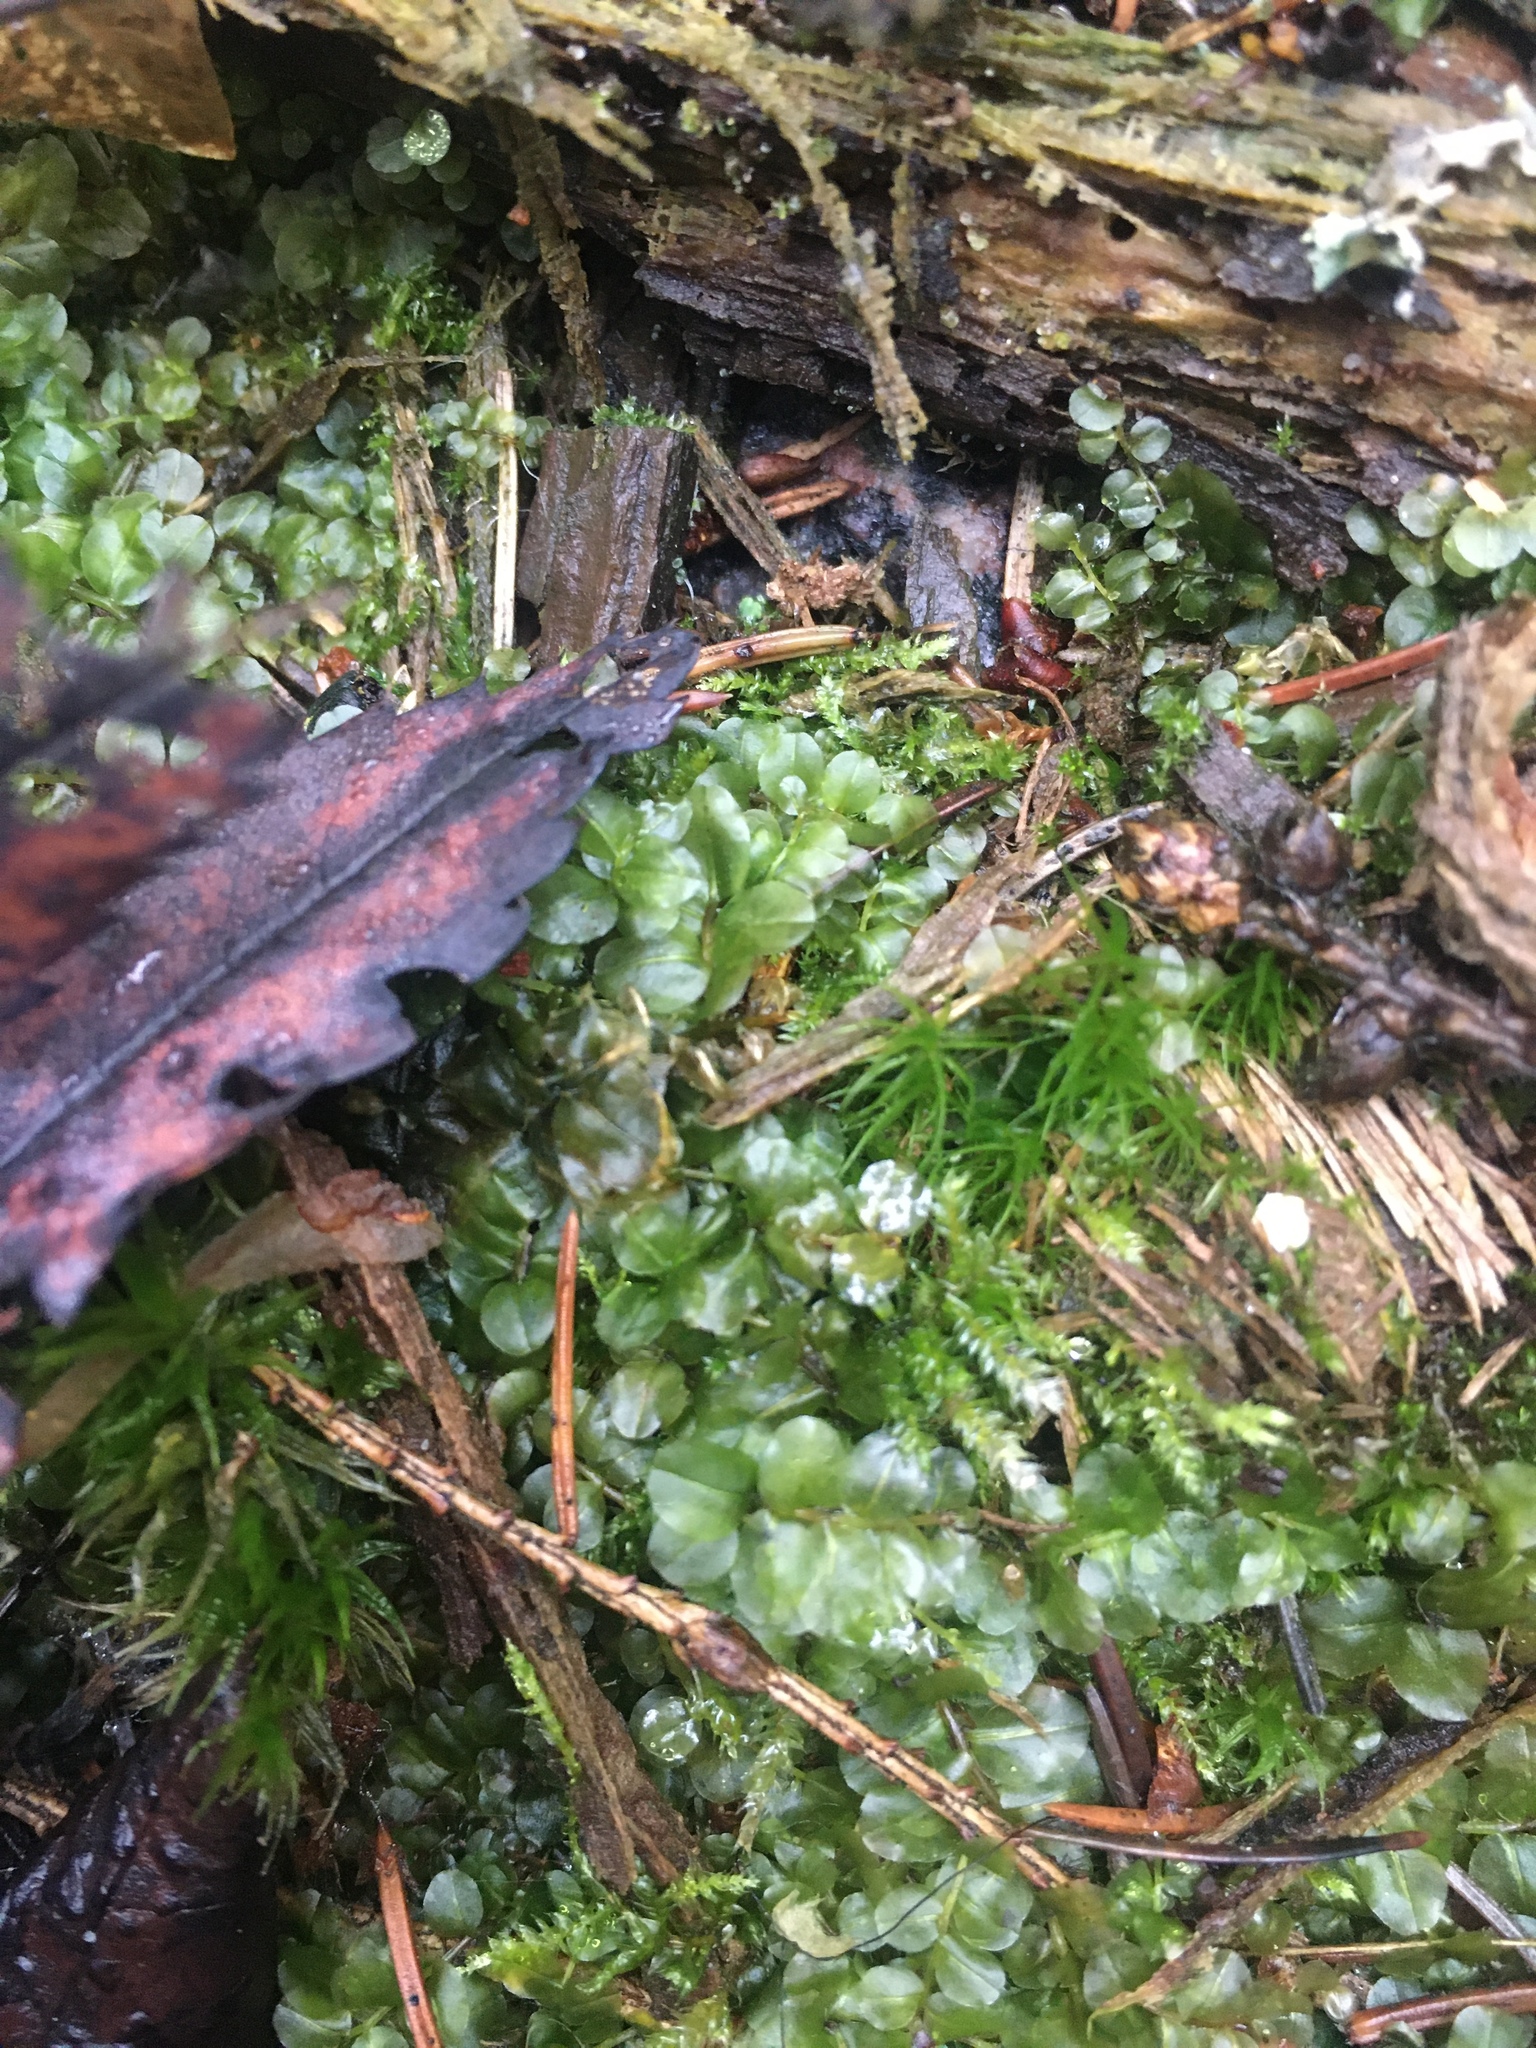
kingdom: Plantae
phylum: Tracheophyta
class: Magnoliopsida
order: Dipsacales
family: Caprifoliaceae
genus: Linnaea
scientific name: Linnaea borealis
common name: Twinflower
